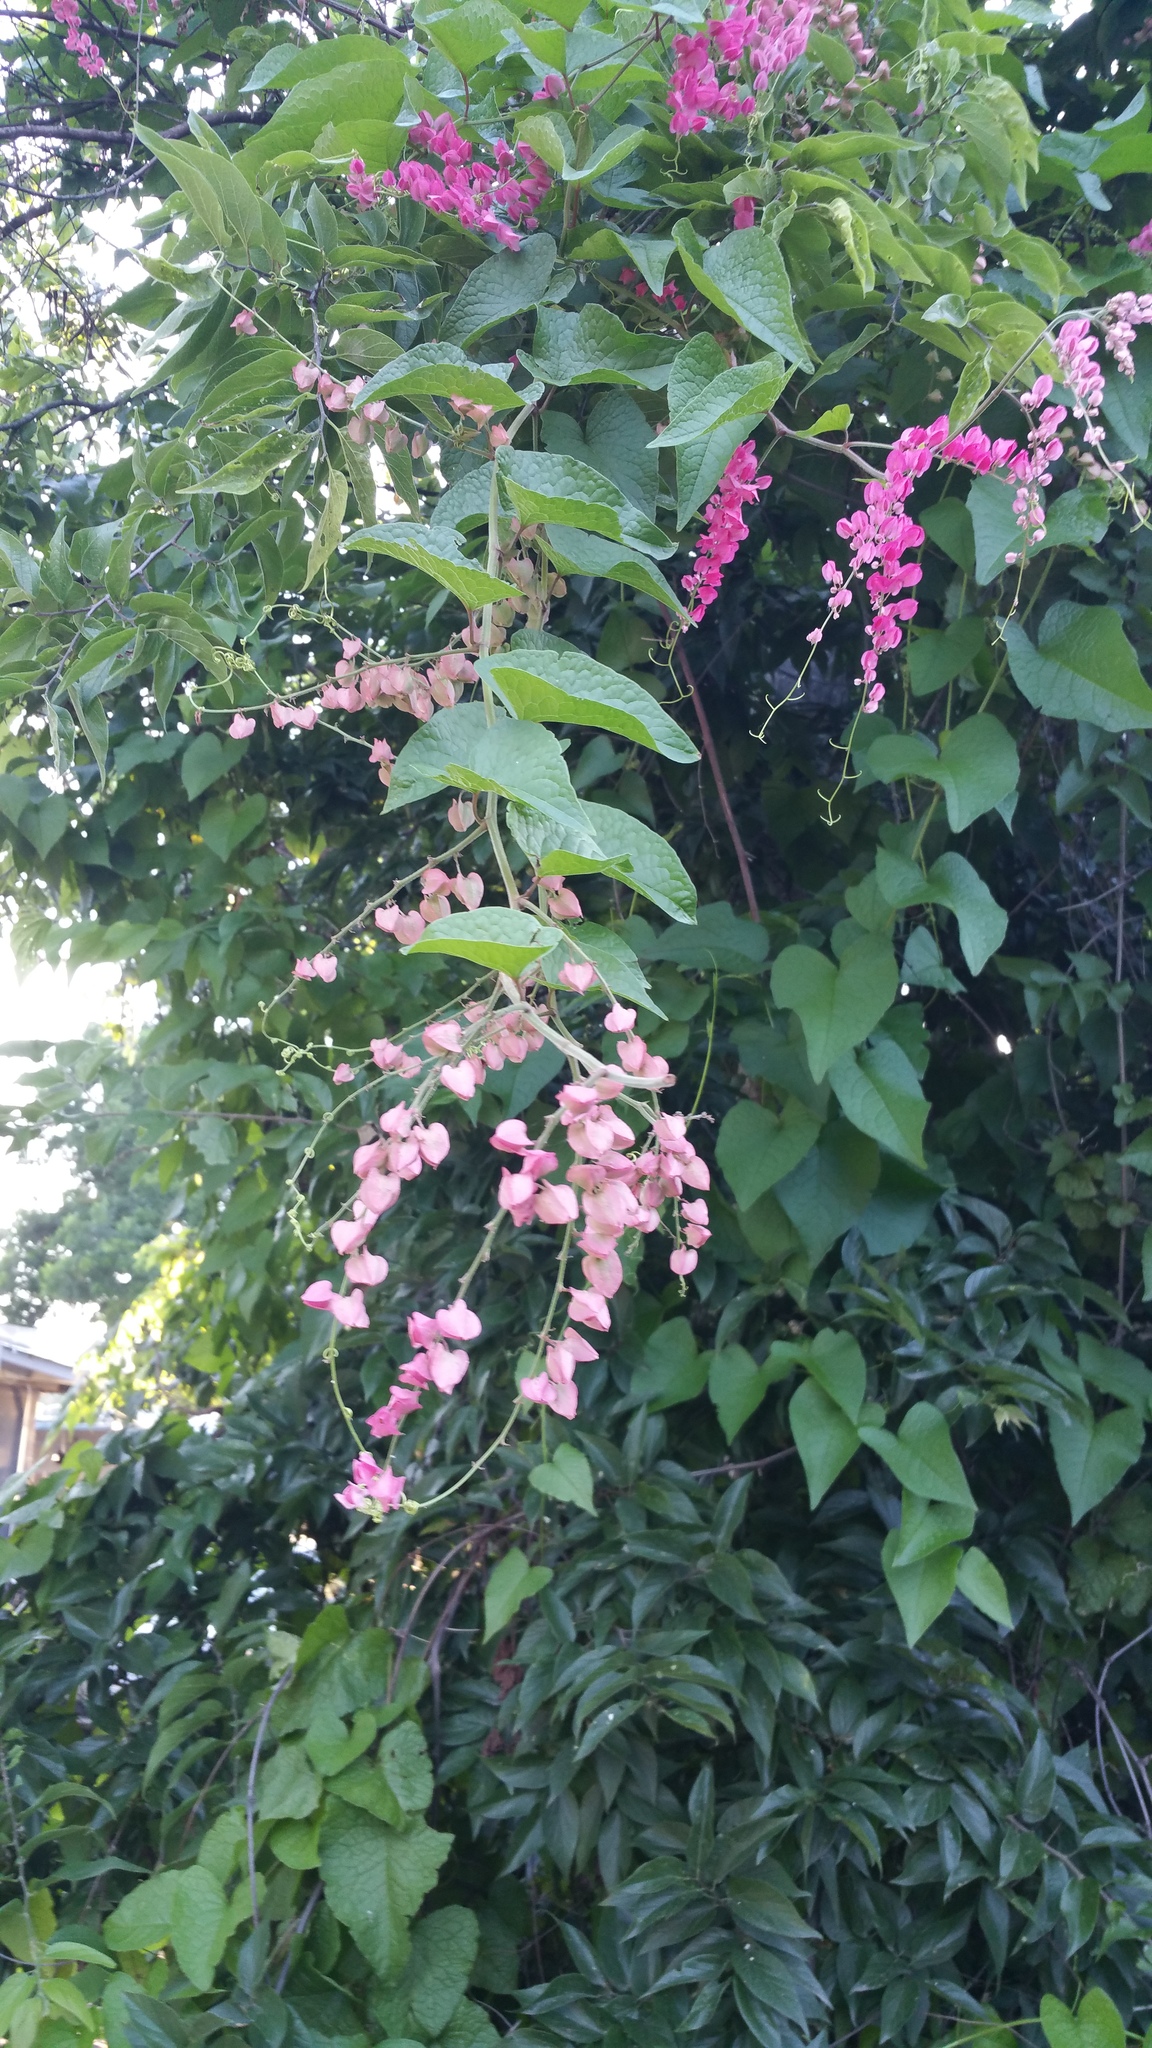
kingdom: Plantae
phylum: Tracheophyta
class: Magnoliopsida
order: Caryophyllales
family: Polygonaceae
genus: Antigonon
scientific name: Antigonon leptopus
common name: Coral vine
